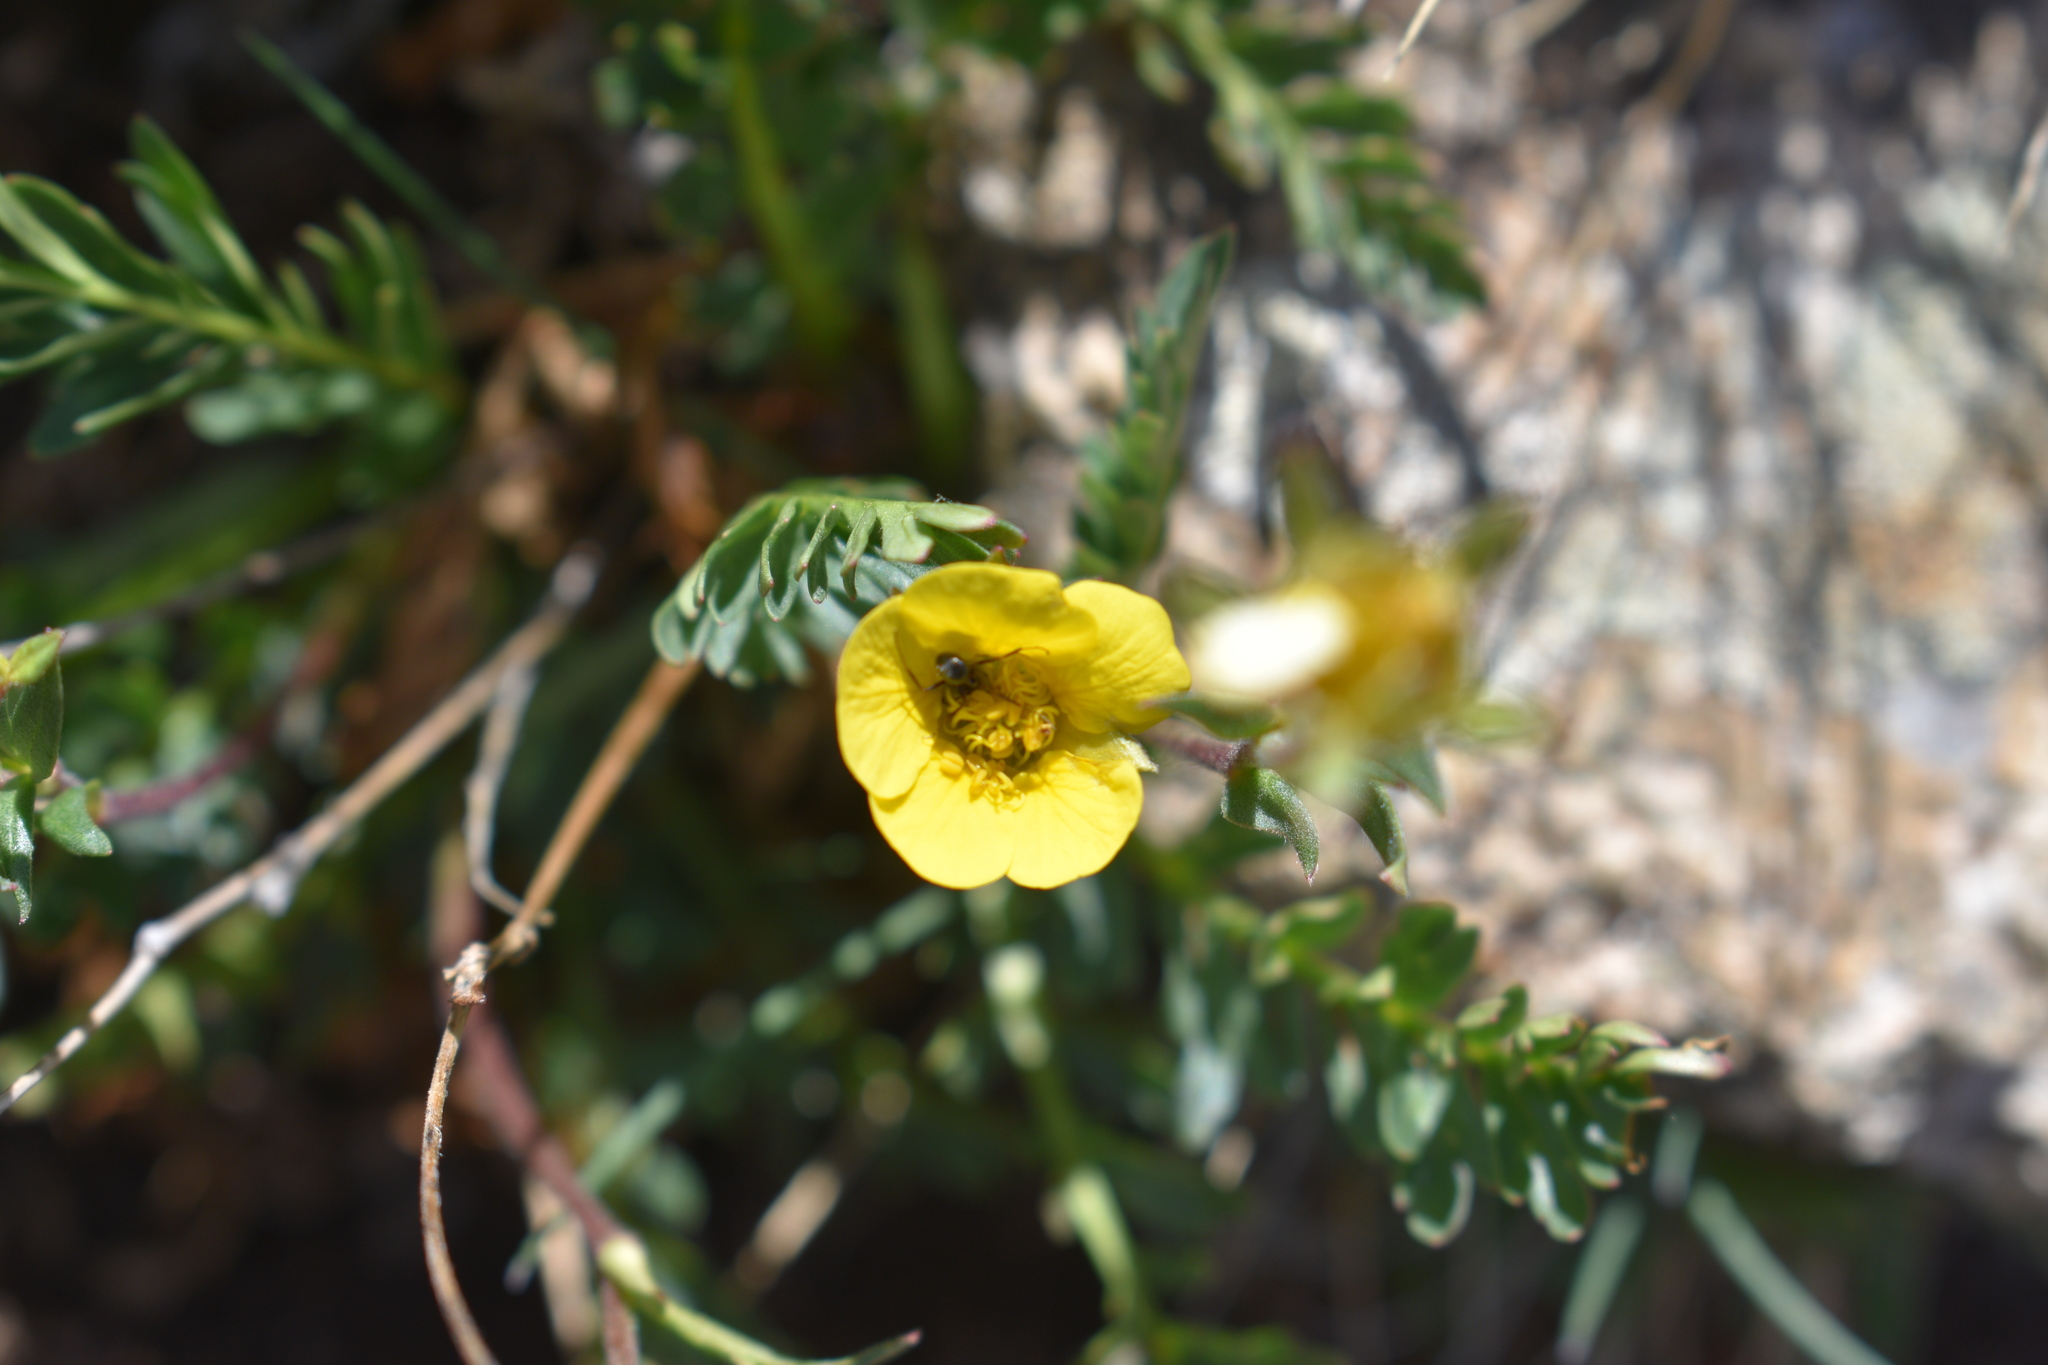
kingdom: Plantae
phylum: Tracheophyta
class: Magnoliopsida
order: Rosales
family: Rosaceae
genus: Geum
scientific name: Geum rossii
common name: Alpine avens
